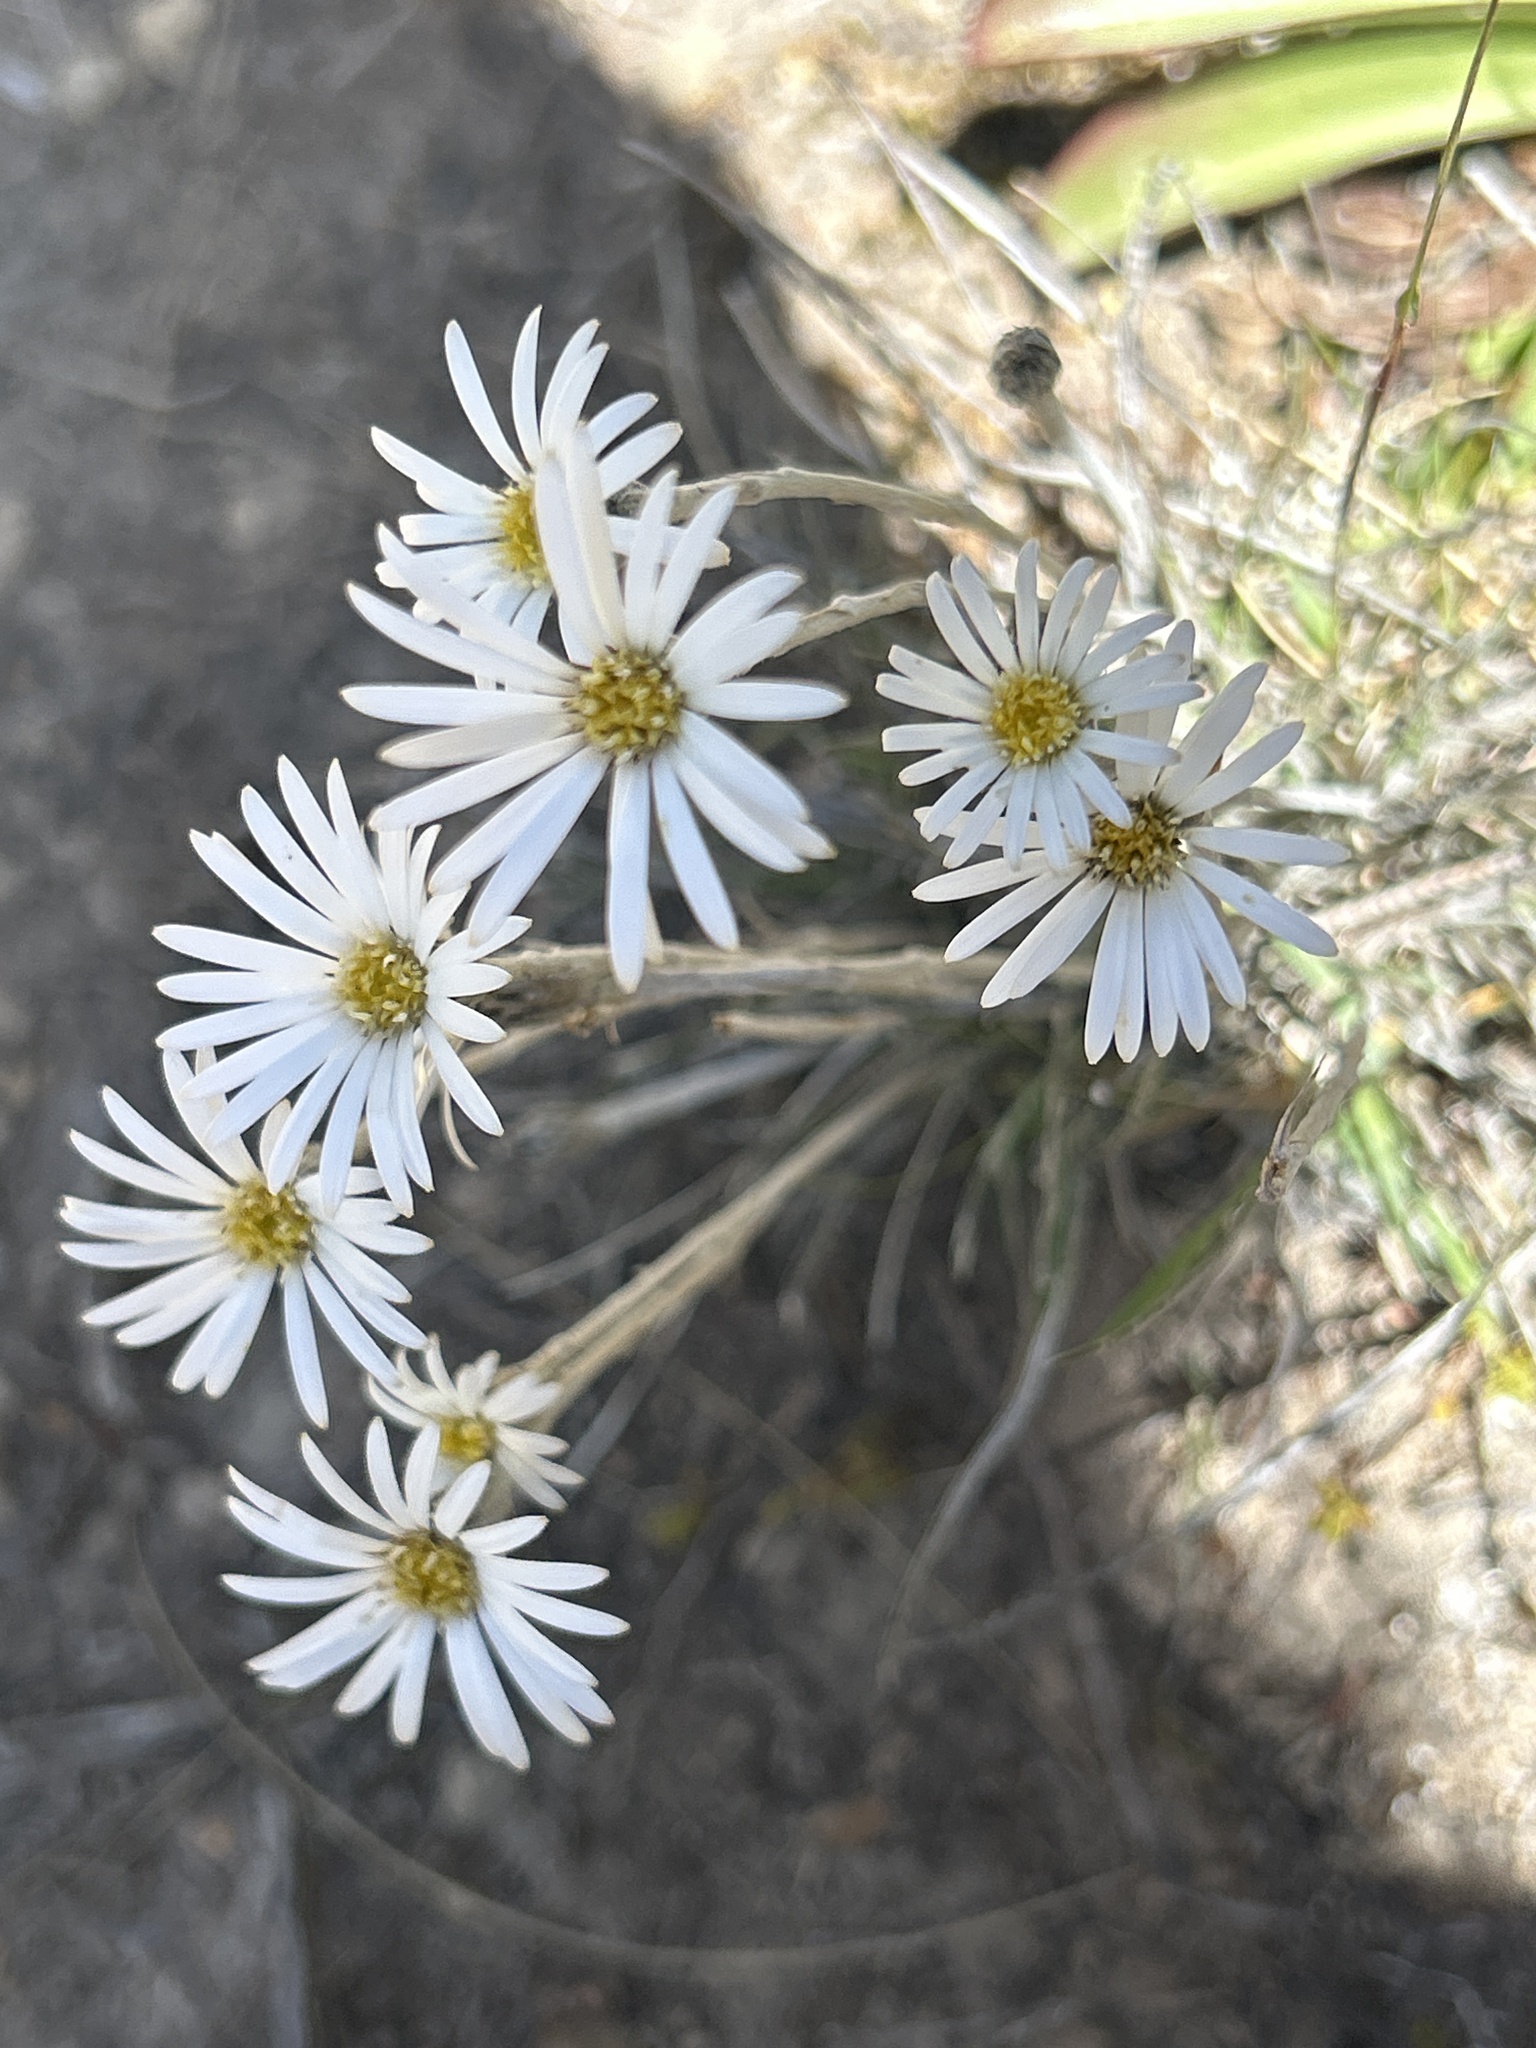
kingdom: Plantae
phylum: Tracheophyta
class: Magnoliopsida
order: Asterales
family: Asteraceae
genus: Celmisia
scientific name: Celmisia gracilenta
